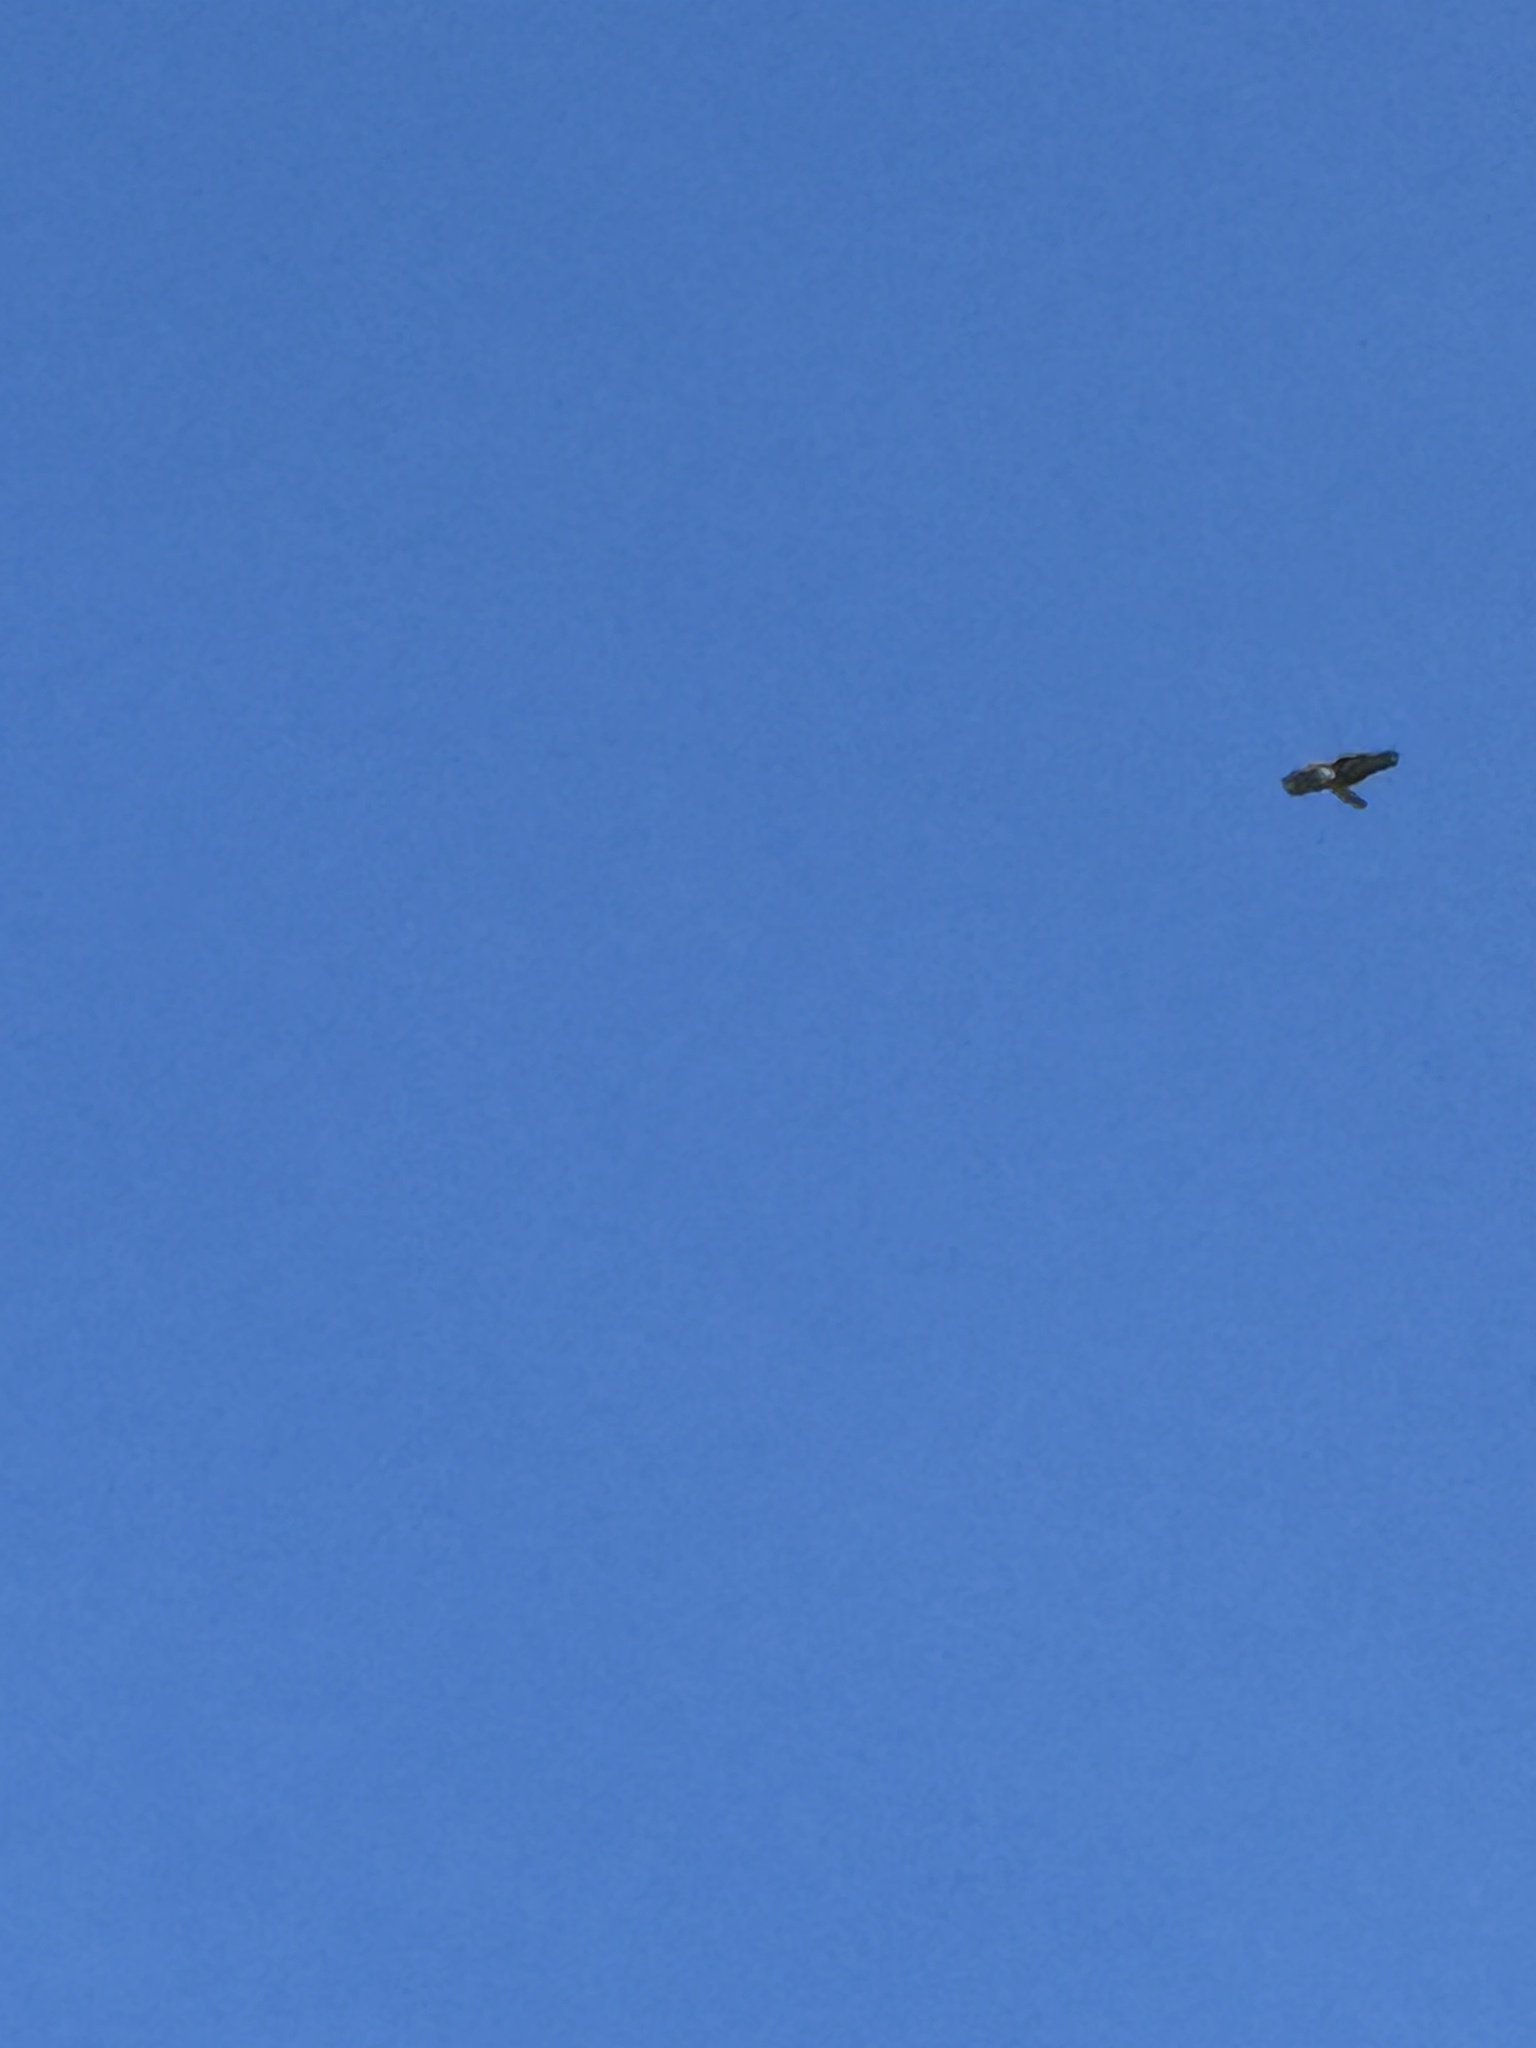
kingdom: Animalia
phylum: Chordata
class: Aves
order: Accipitriformes
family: Accipitridae
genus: Buteo
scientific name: Buteo jamaicensis
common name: Red-tailed hawk
